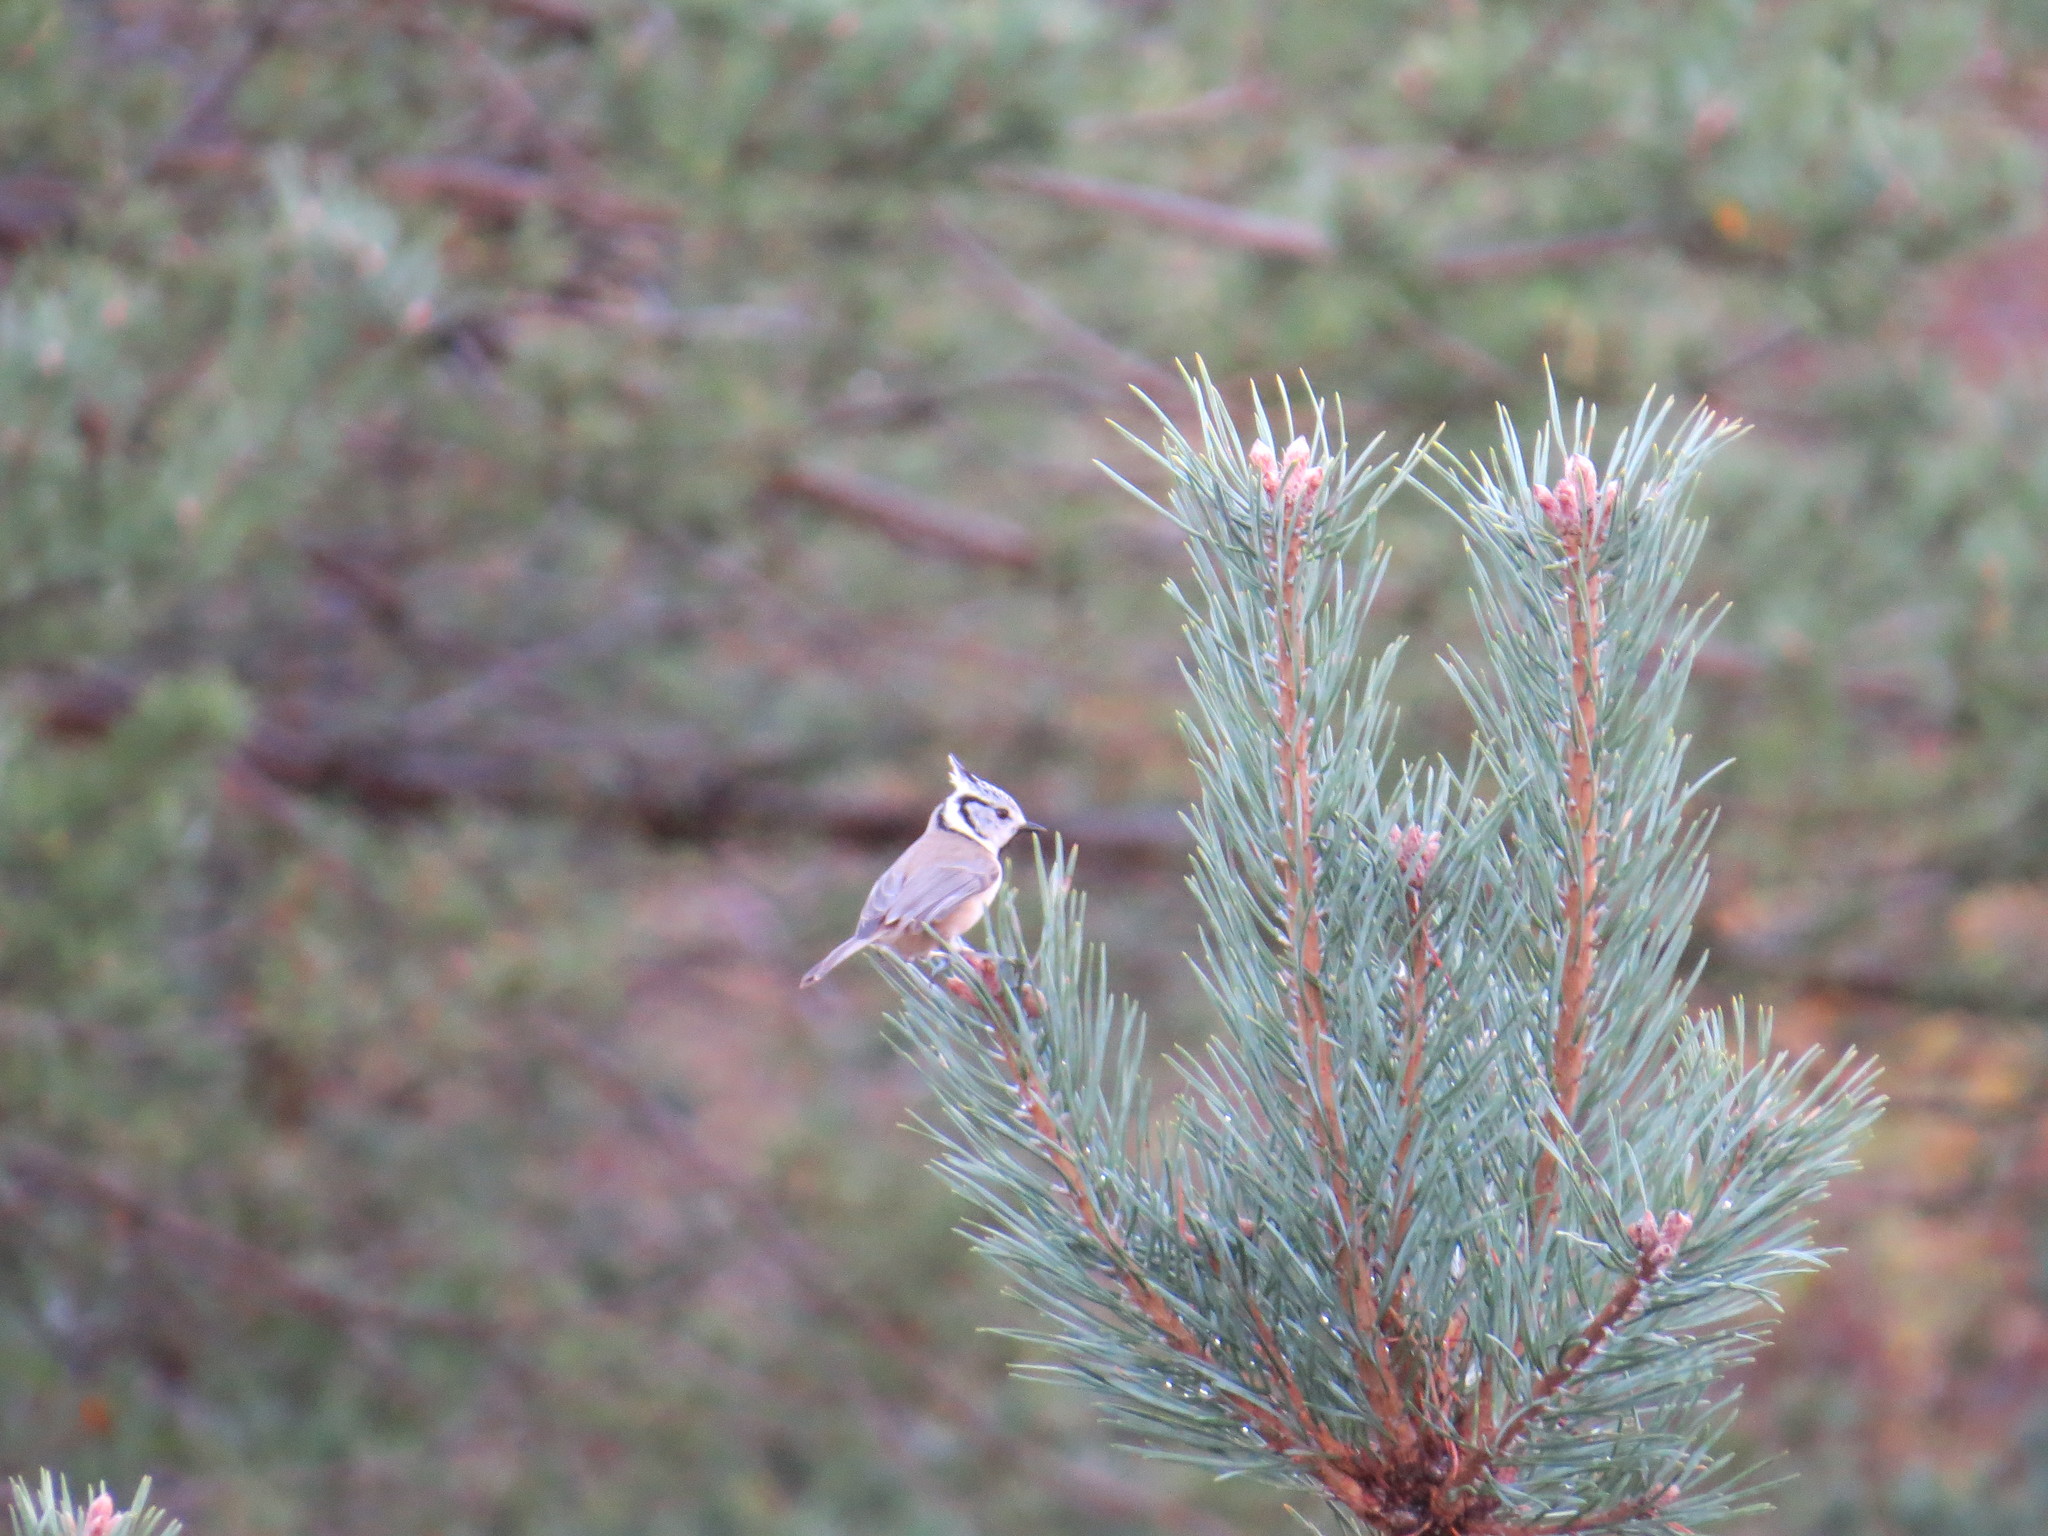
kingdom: Animalia
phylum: Chordata
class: Aves
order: Passeriformes
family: Paridae
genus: Lophophanes
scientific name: Lophophanes cristatus
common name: European crested tit
